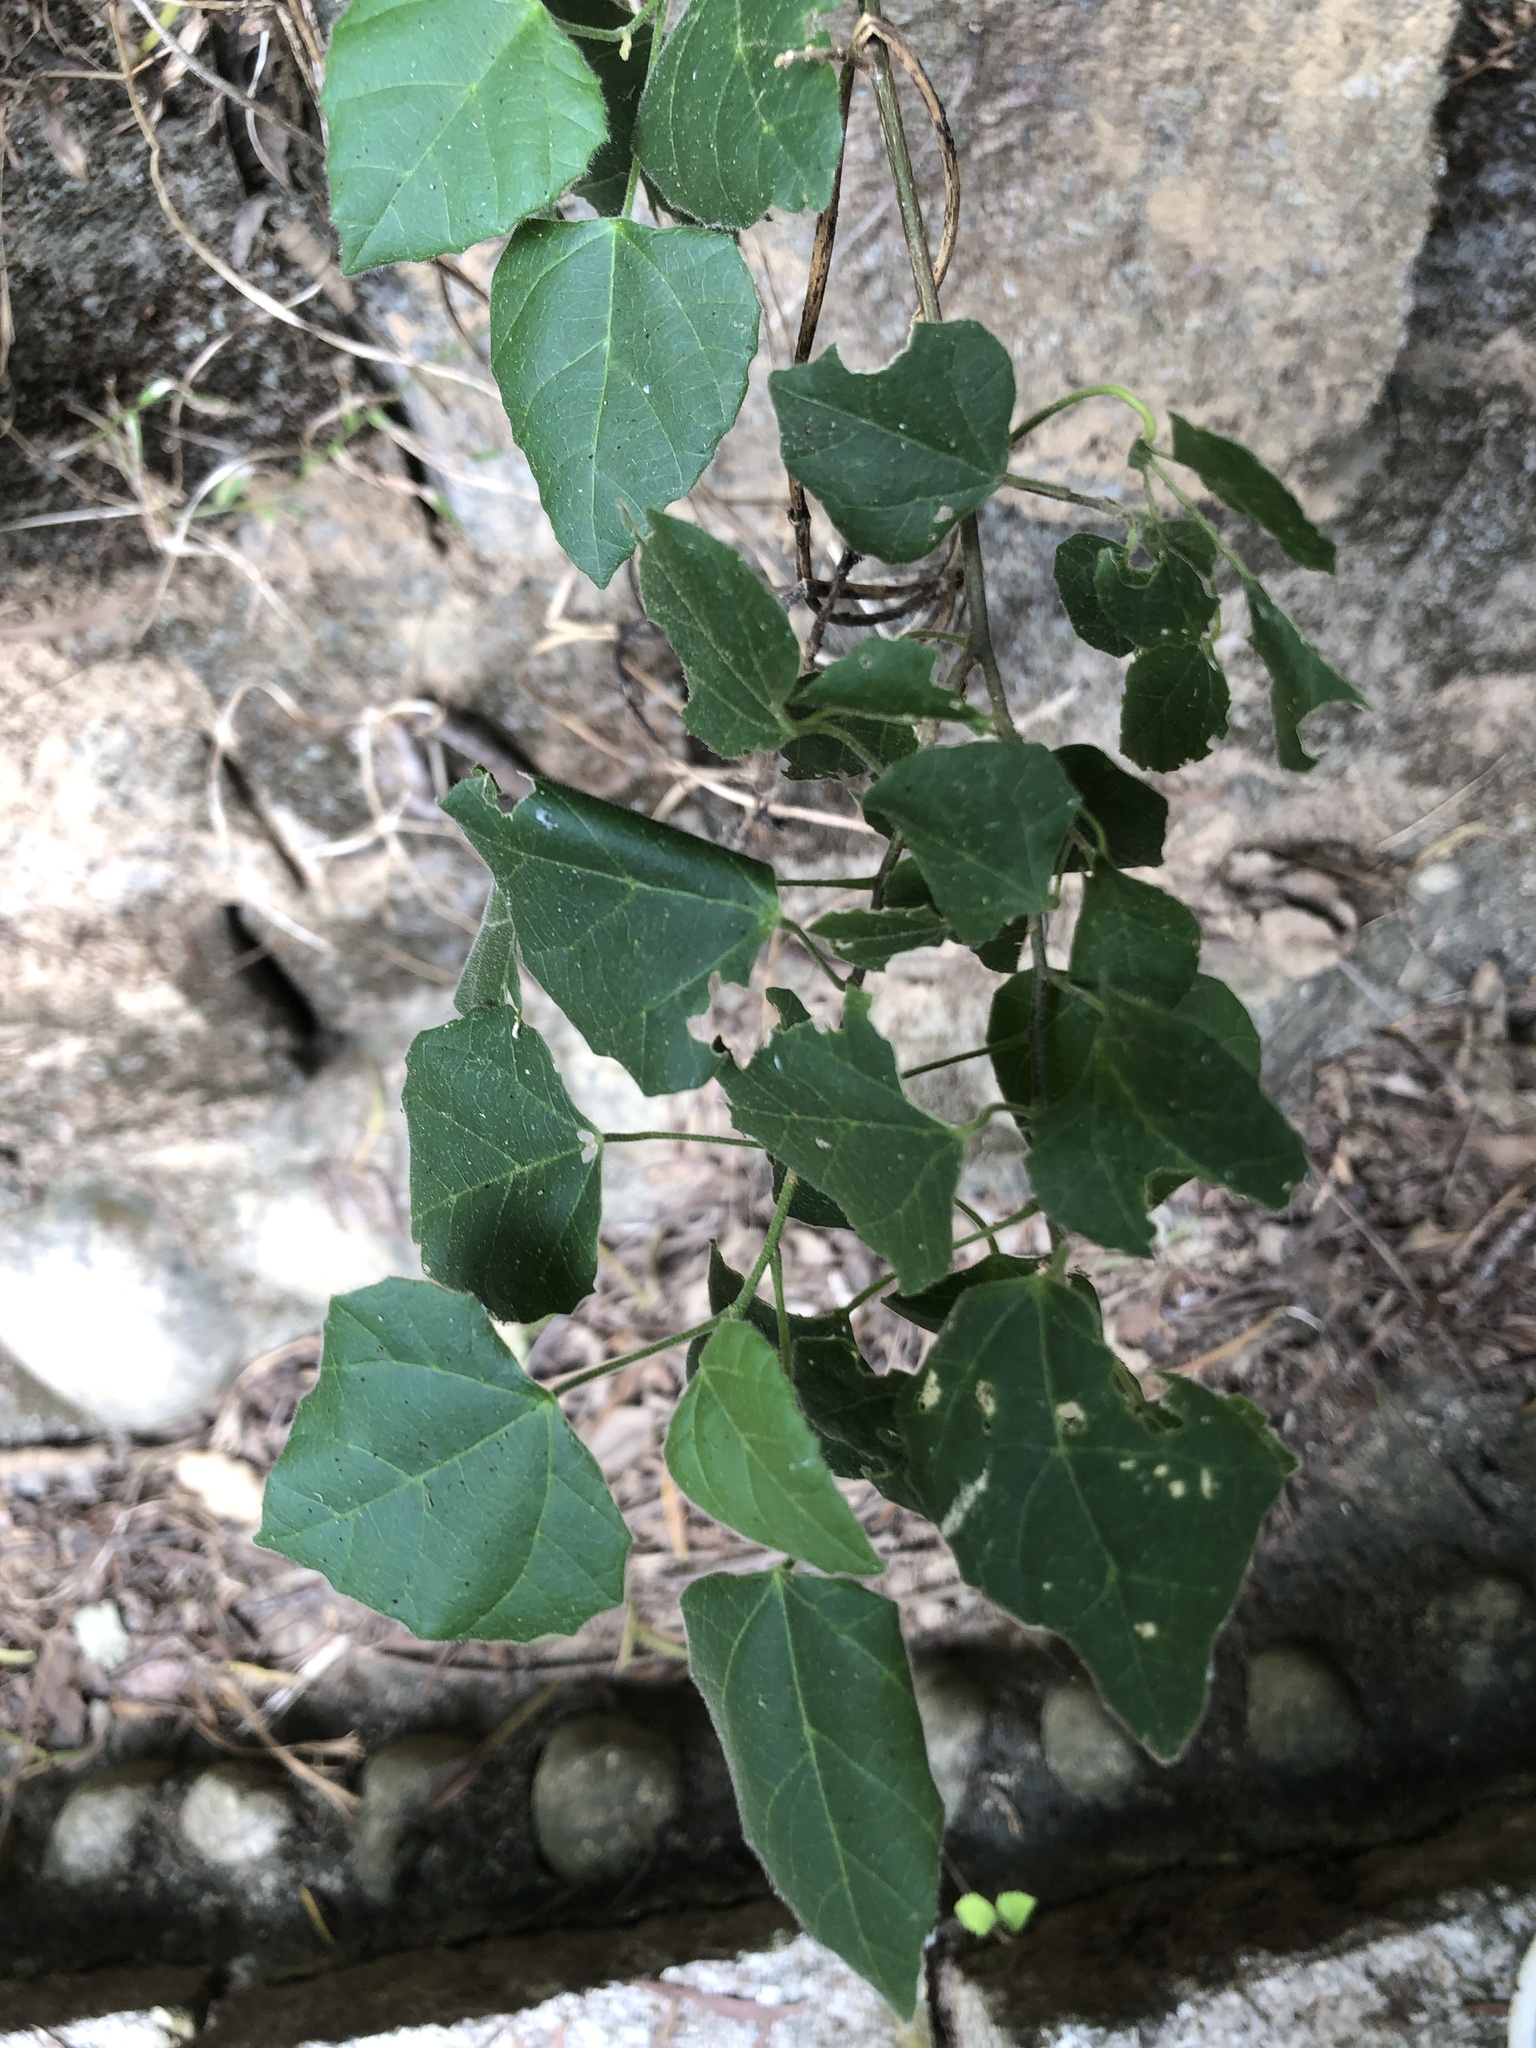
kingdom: Plantae
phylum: Tracheophyta
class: Magnoliopsida
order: Malpighiales
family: Euphorbiaceae
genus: Mallotus
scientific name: Mallotus repandus
